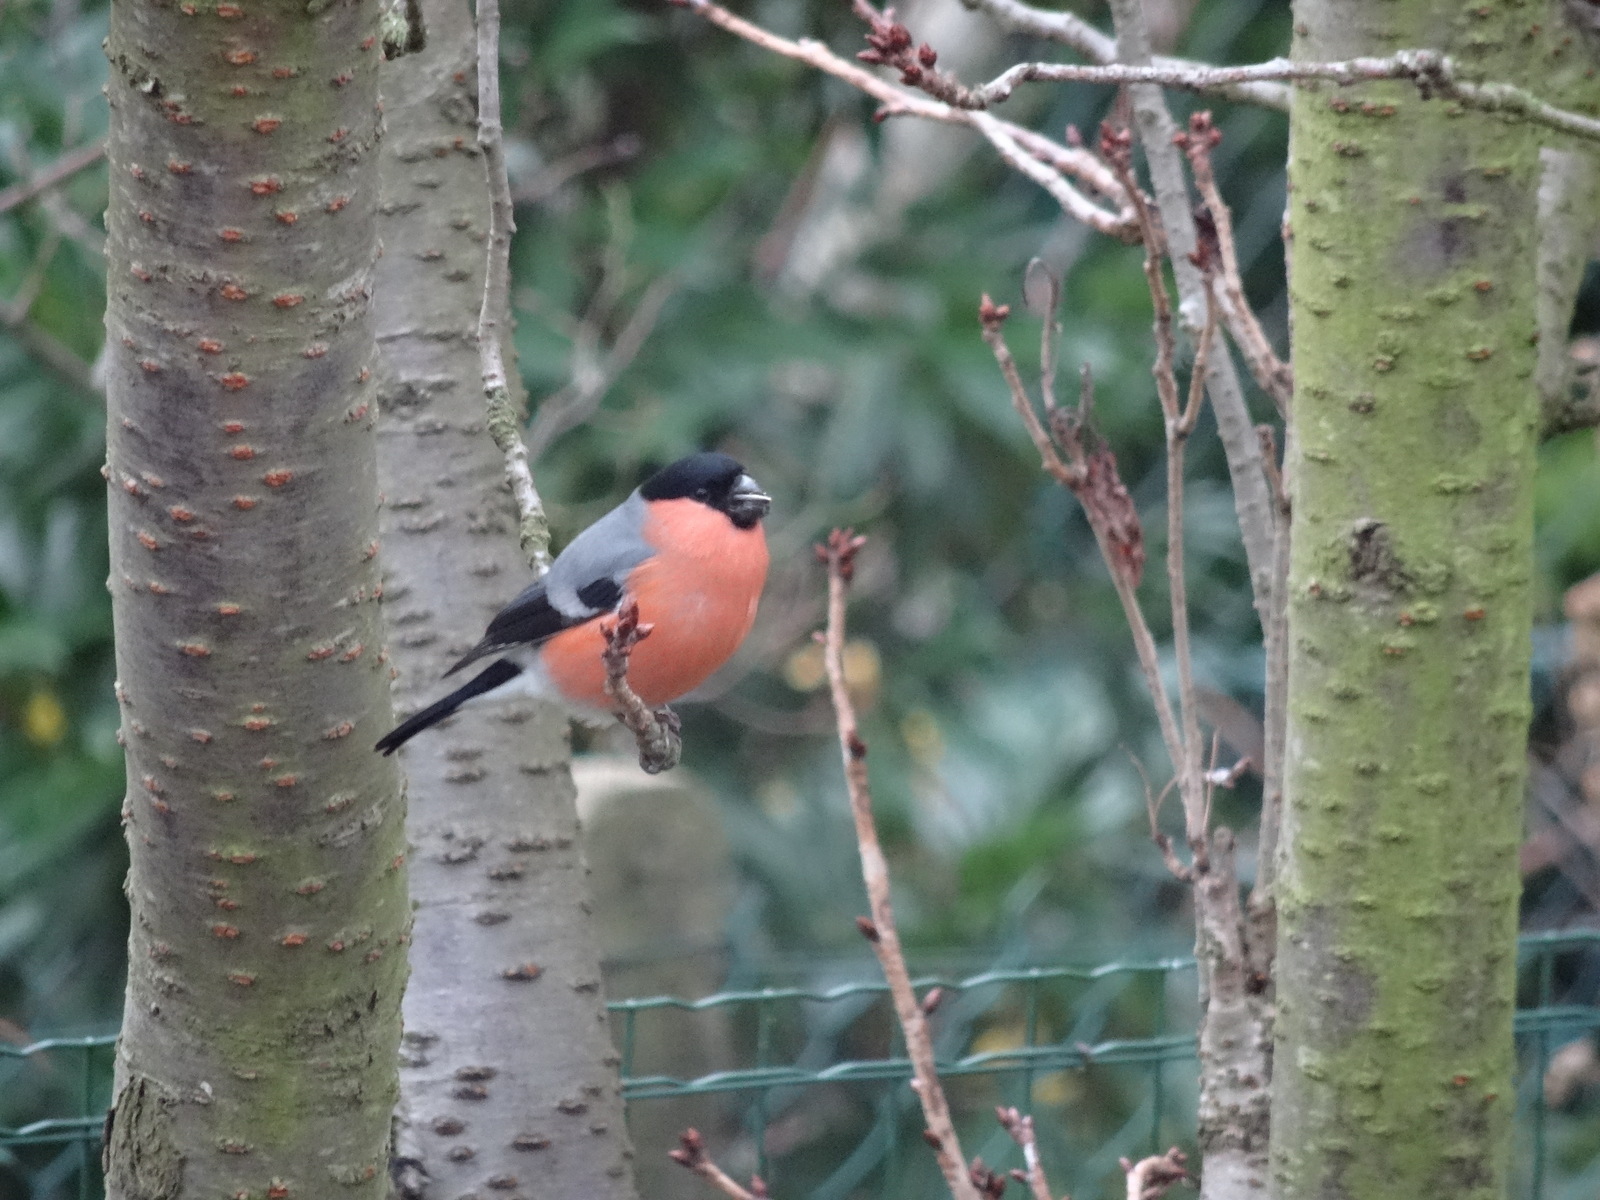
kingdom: Animalia
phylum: Chordata
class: Aves
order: Passeriformes
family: Fringillidae
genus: Pyrrhula
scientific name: Pyrrhula pyrrhula
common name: Eurasian bullfinch
